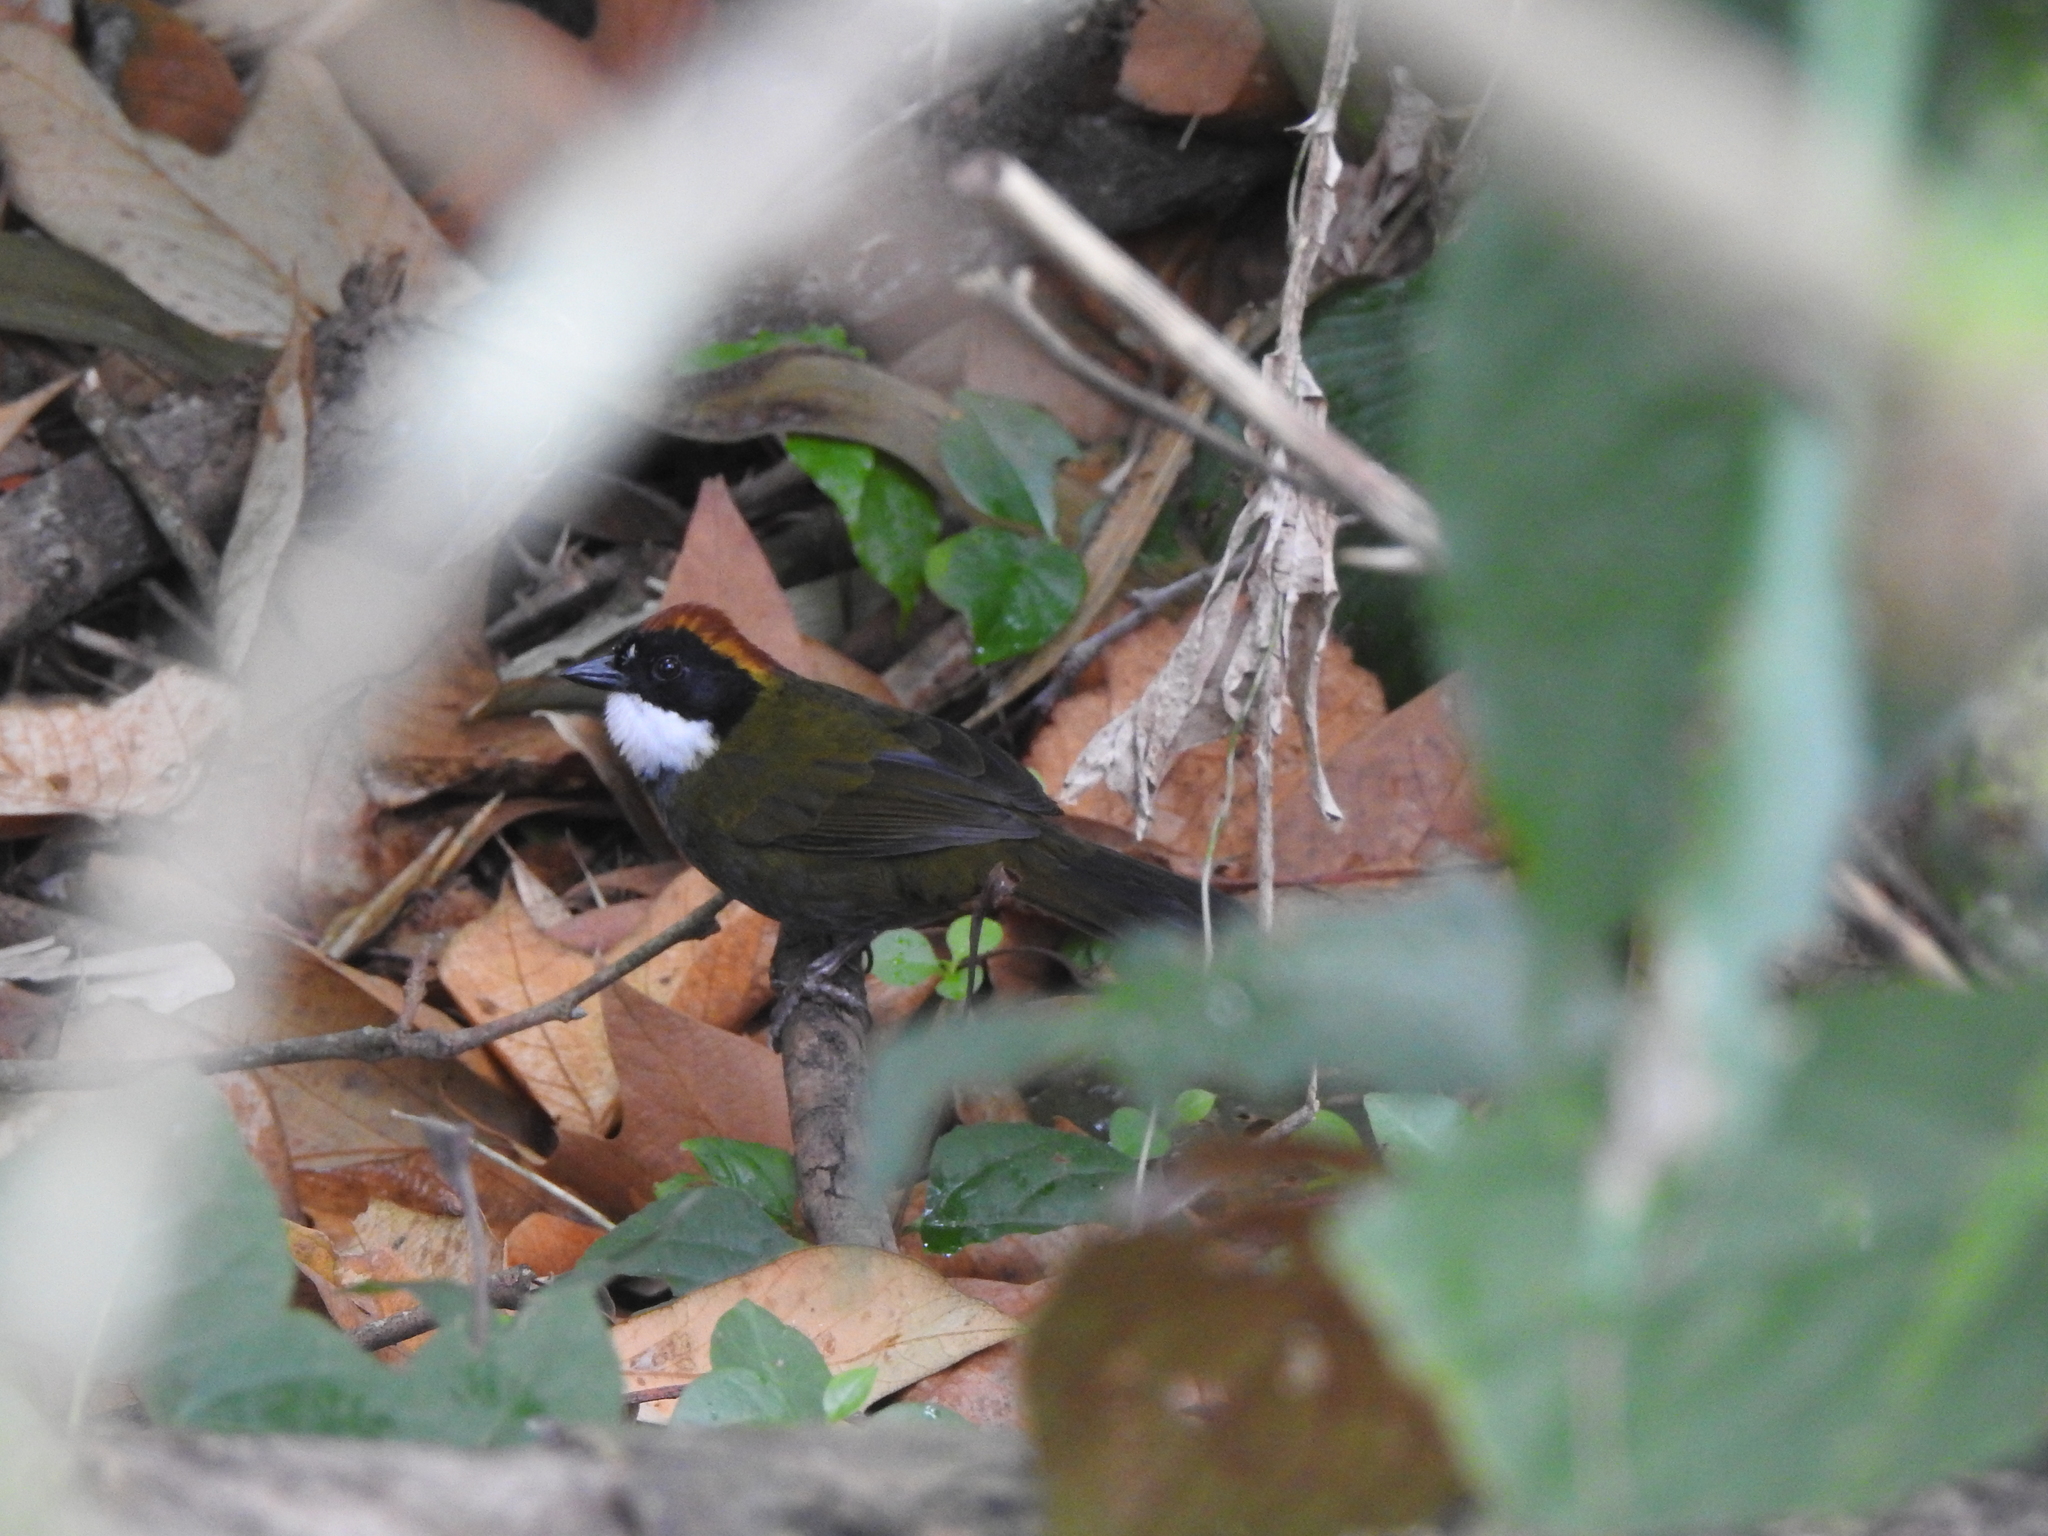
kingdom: Animalia
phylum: Chordata
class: Aves
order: Passeriformes
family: Passerellidae
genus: Arremon
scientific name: Arremon brunneinucha
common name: Chestnut-capped brushfinch
